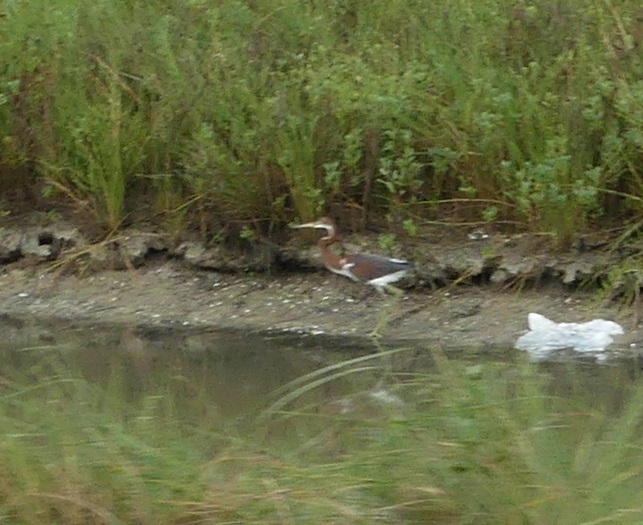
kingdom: Animalia
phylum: Chordata
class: Aves
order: Pelecaniformes
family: Ardeidae
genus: Egretta
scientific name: Egretta tricolor
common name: Tricolored heron
